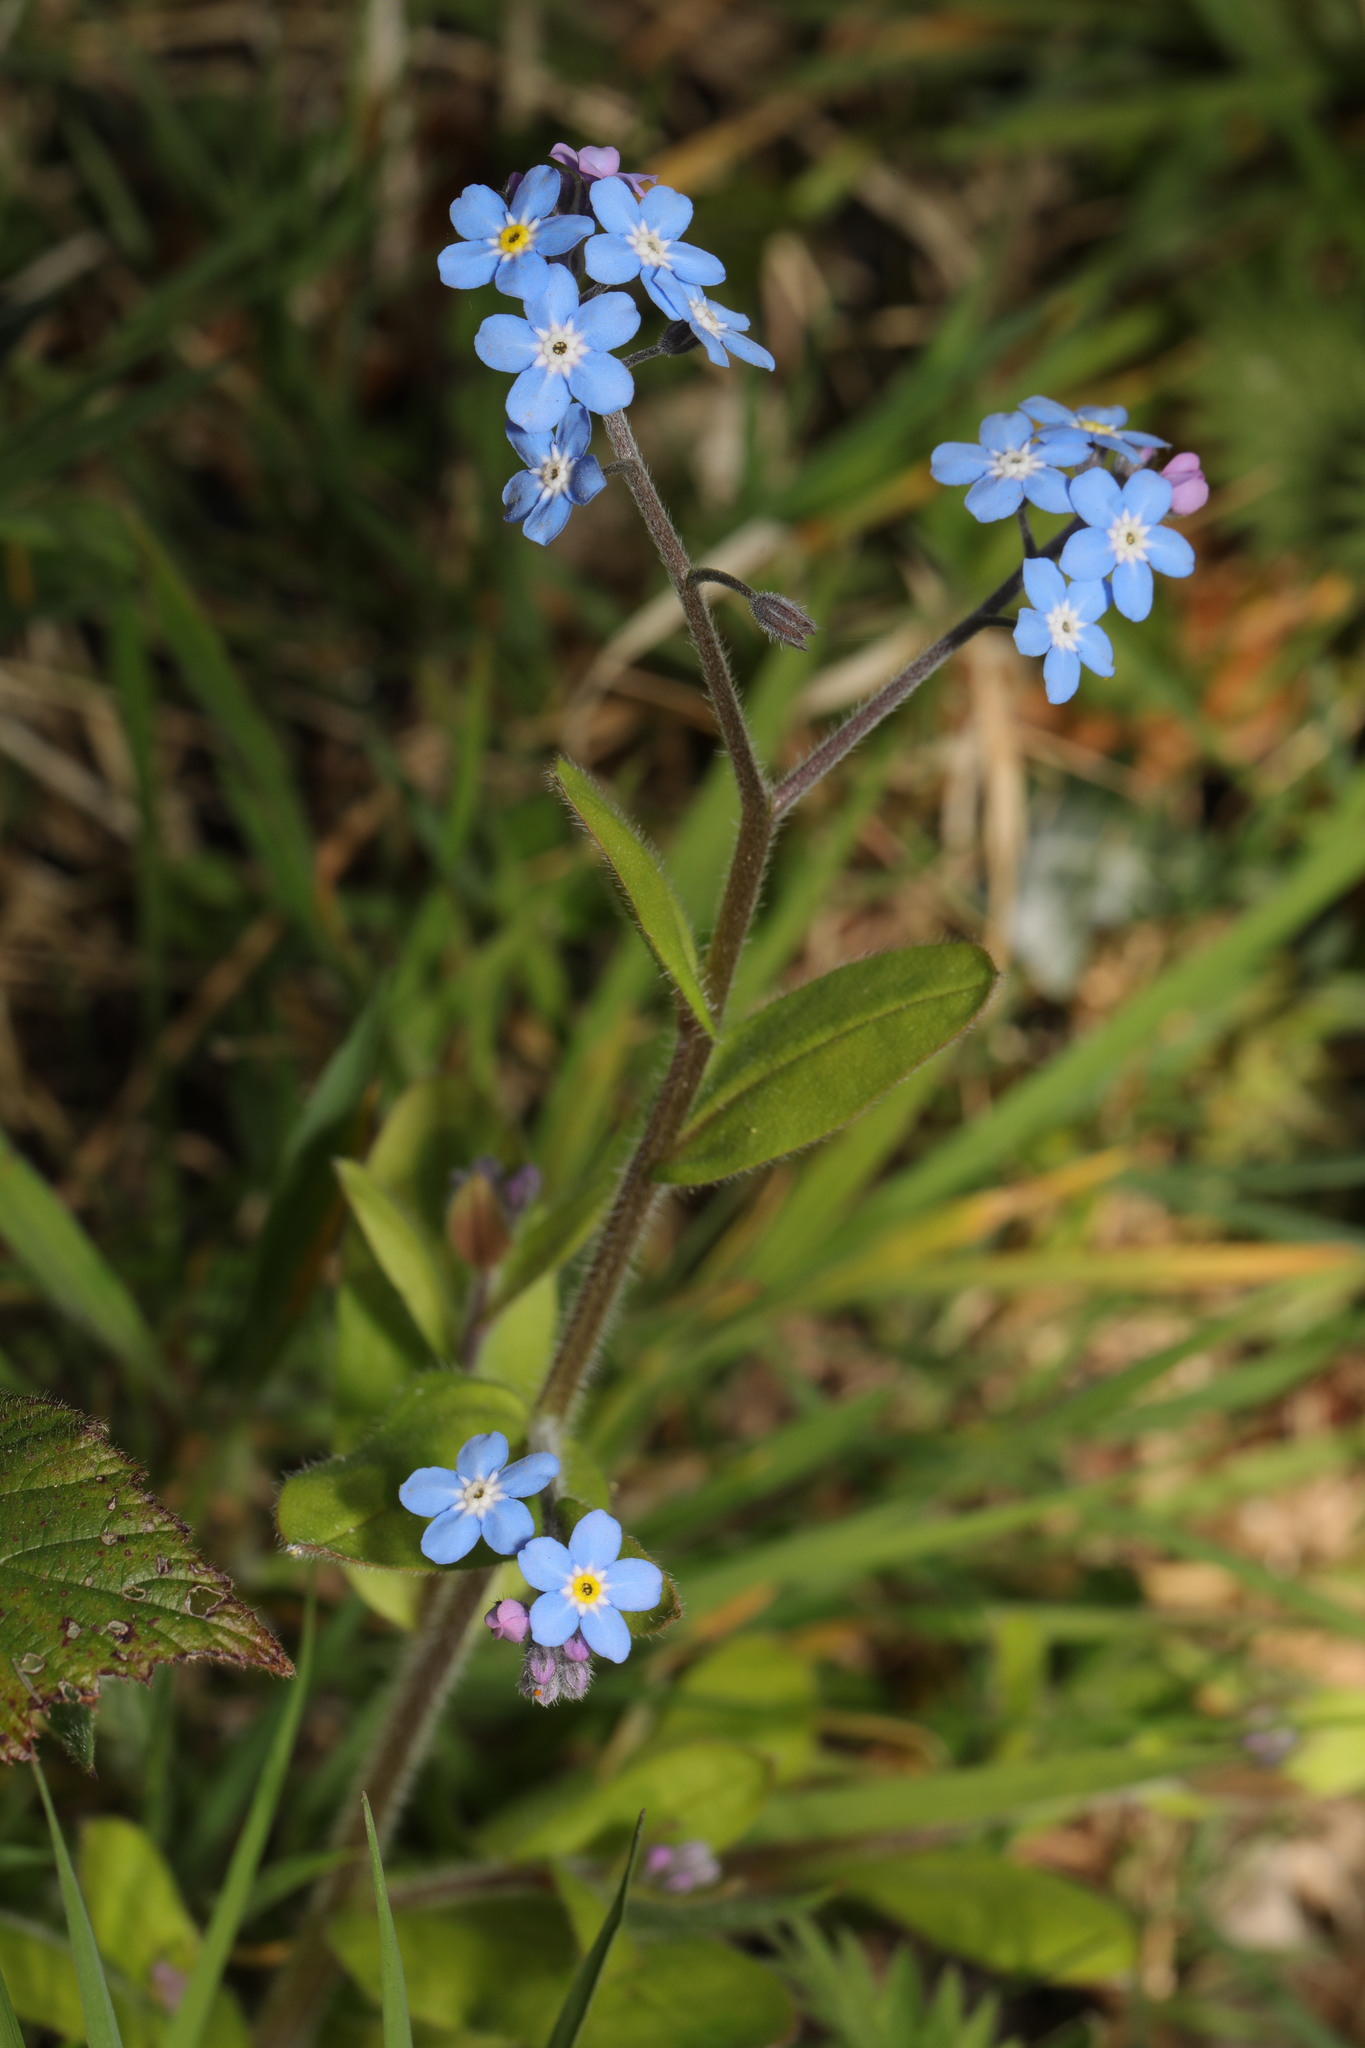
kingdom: Plantae
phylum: Tracheophyta
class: Magnoliopsida
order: Boraginales
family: Boraginaceae
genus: Myosotis
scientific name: Myosotis sylvatica
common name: Wood forget-me-not
